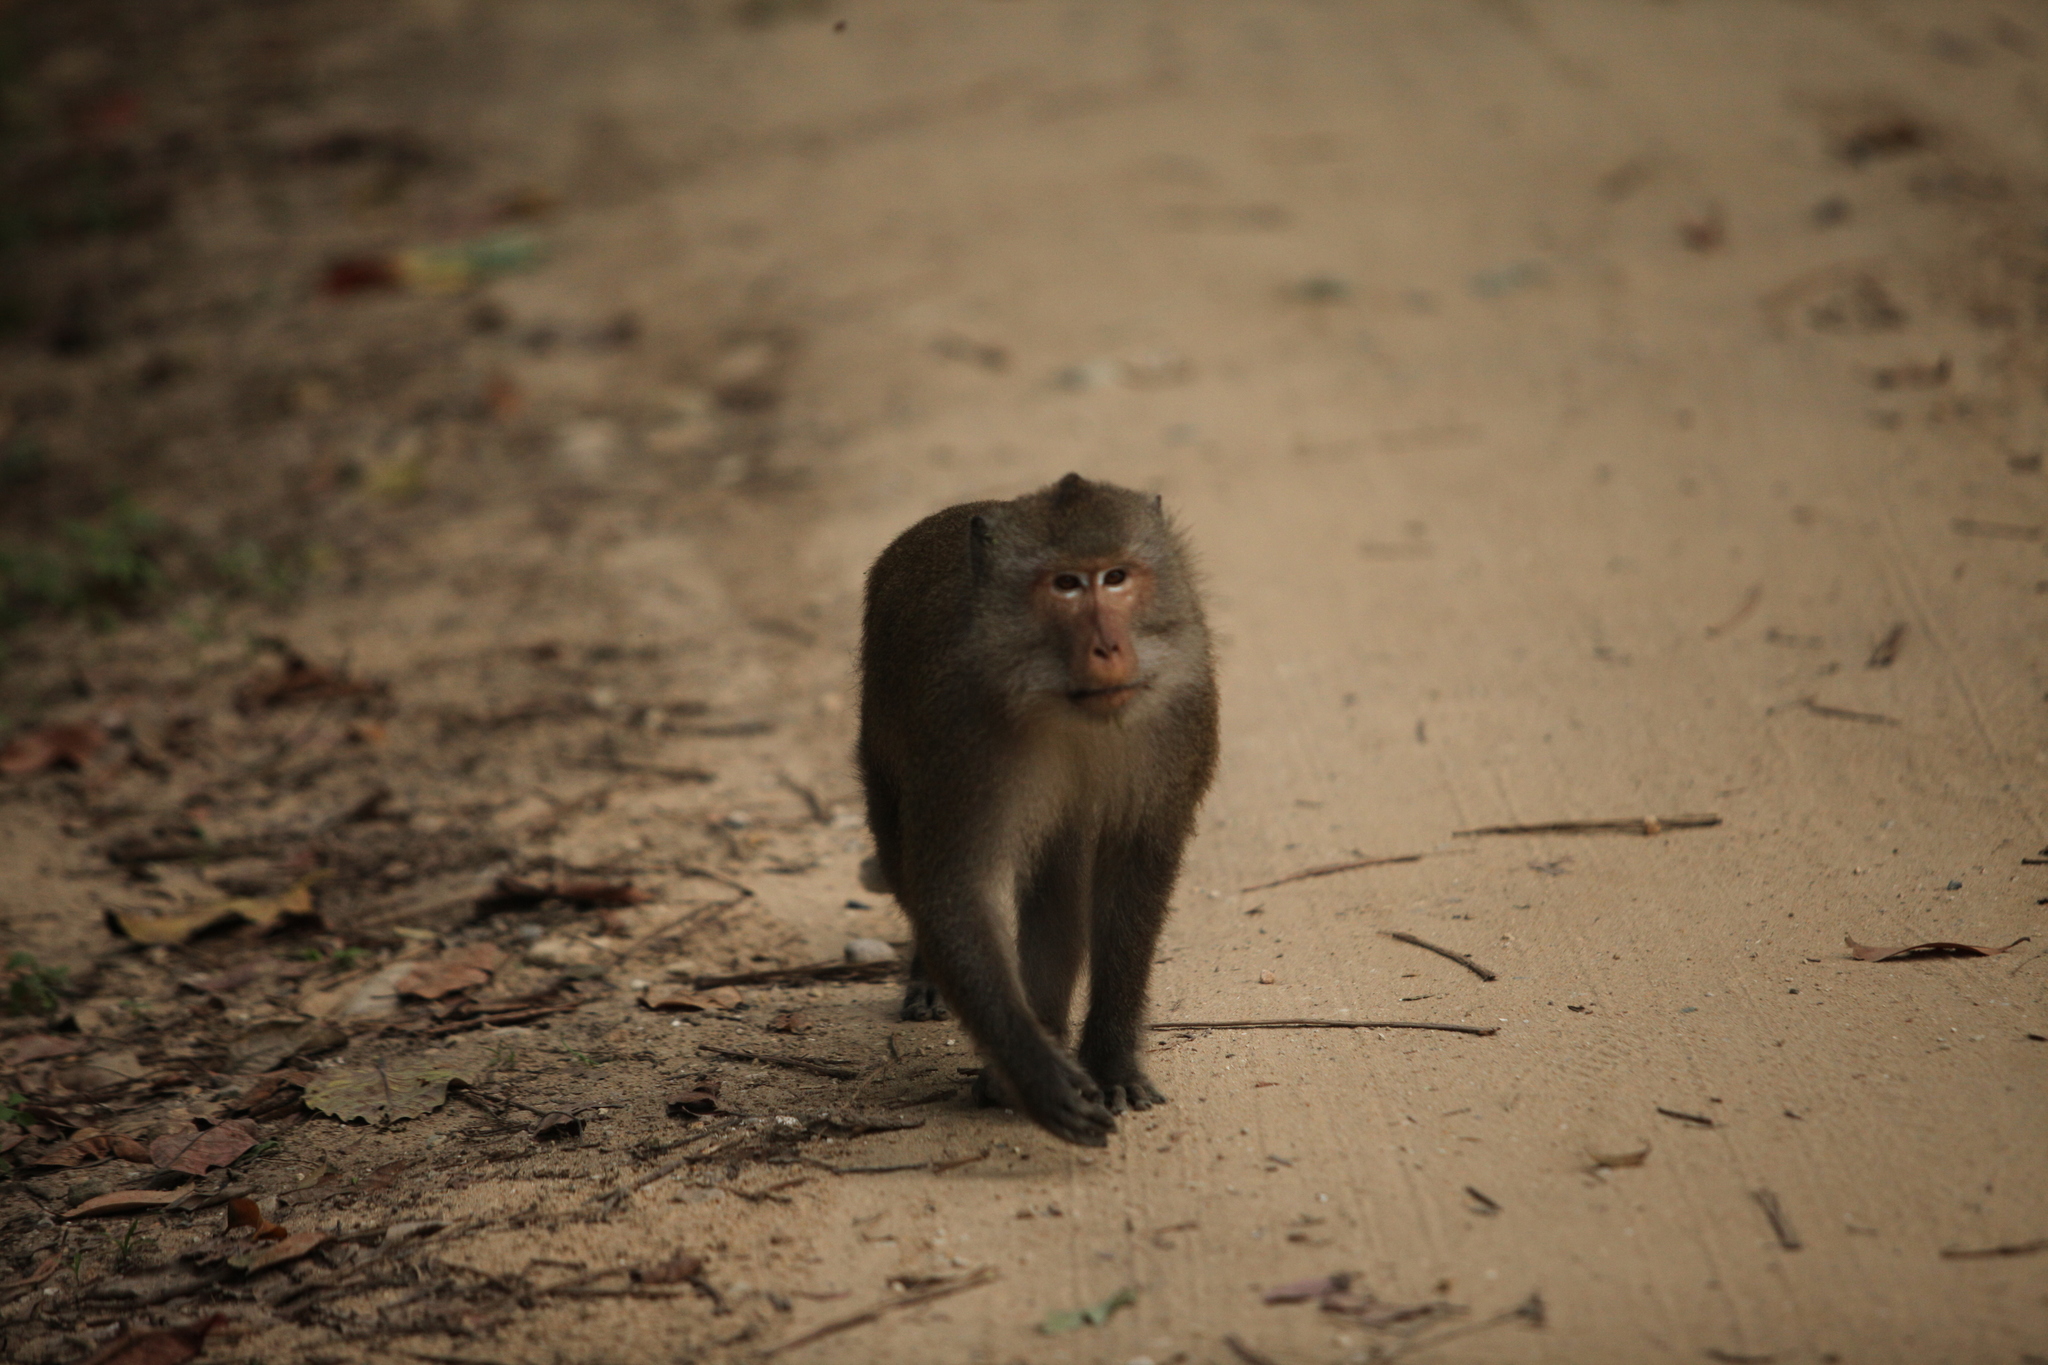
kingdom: Animalia
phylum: Chordata
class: Mammalia
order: Primates
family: Cercopithecidae
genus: Macaca
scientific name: Macaca fascicularis
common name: Crab-eating macaque
